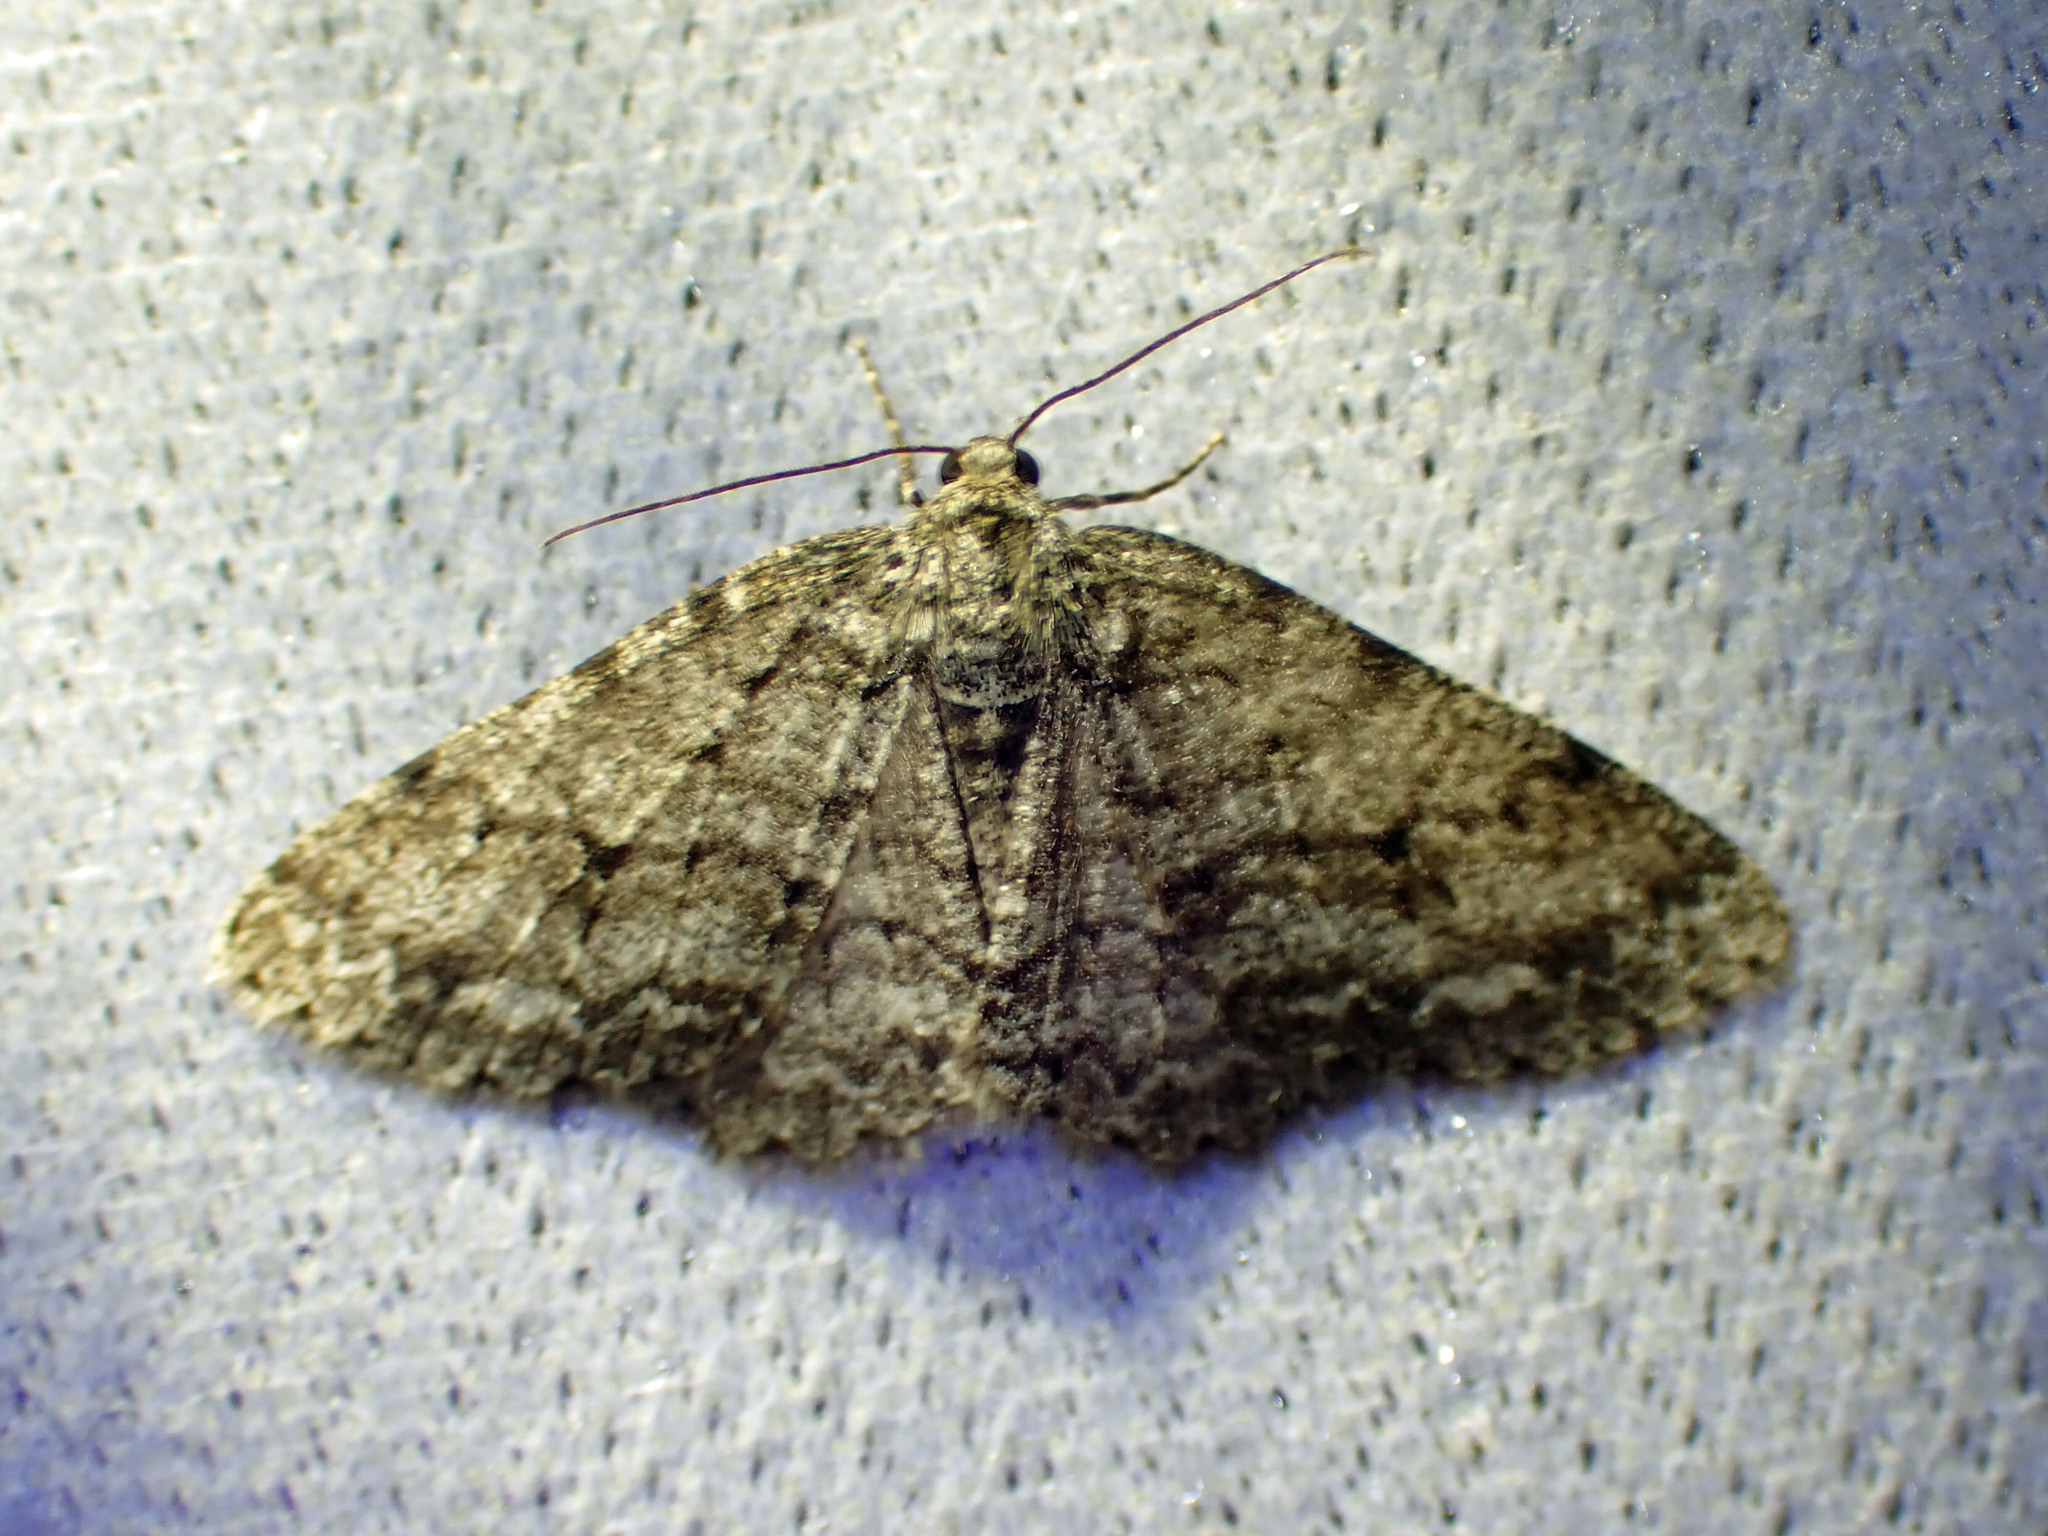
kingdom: Animalia
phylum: Arthropoda
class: Insecta
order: Lepidoptera
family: Geometridae
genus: Ectropis
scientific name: Ectropis crepuscularia
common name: Engrailed
